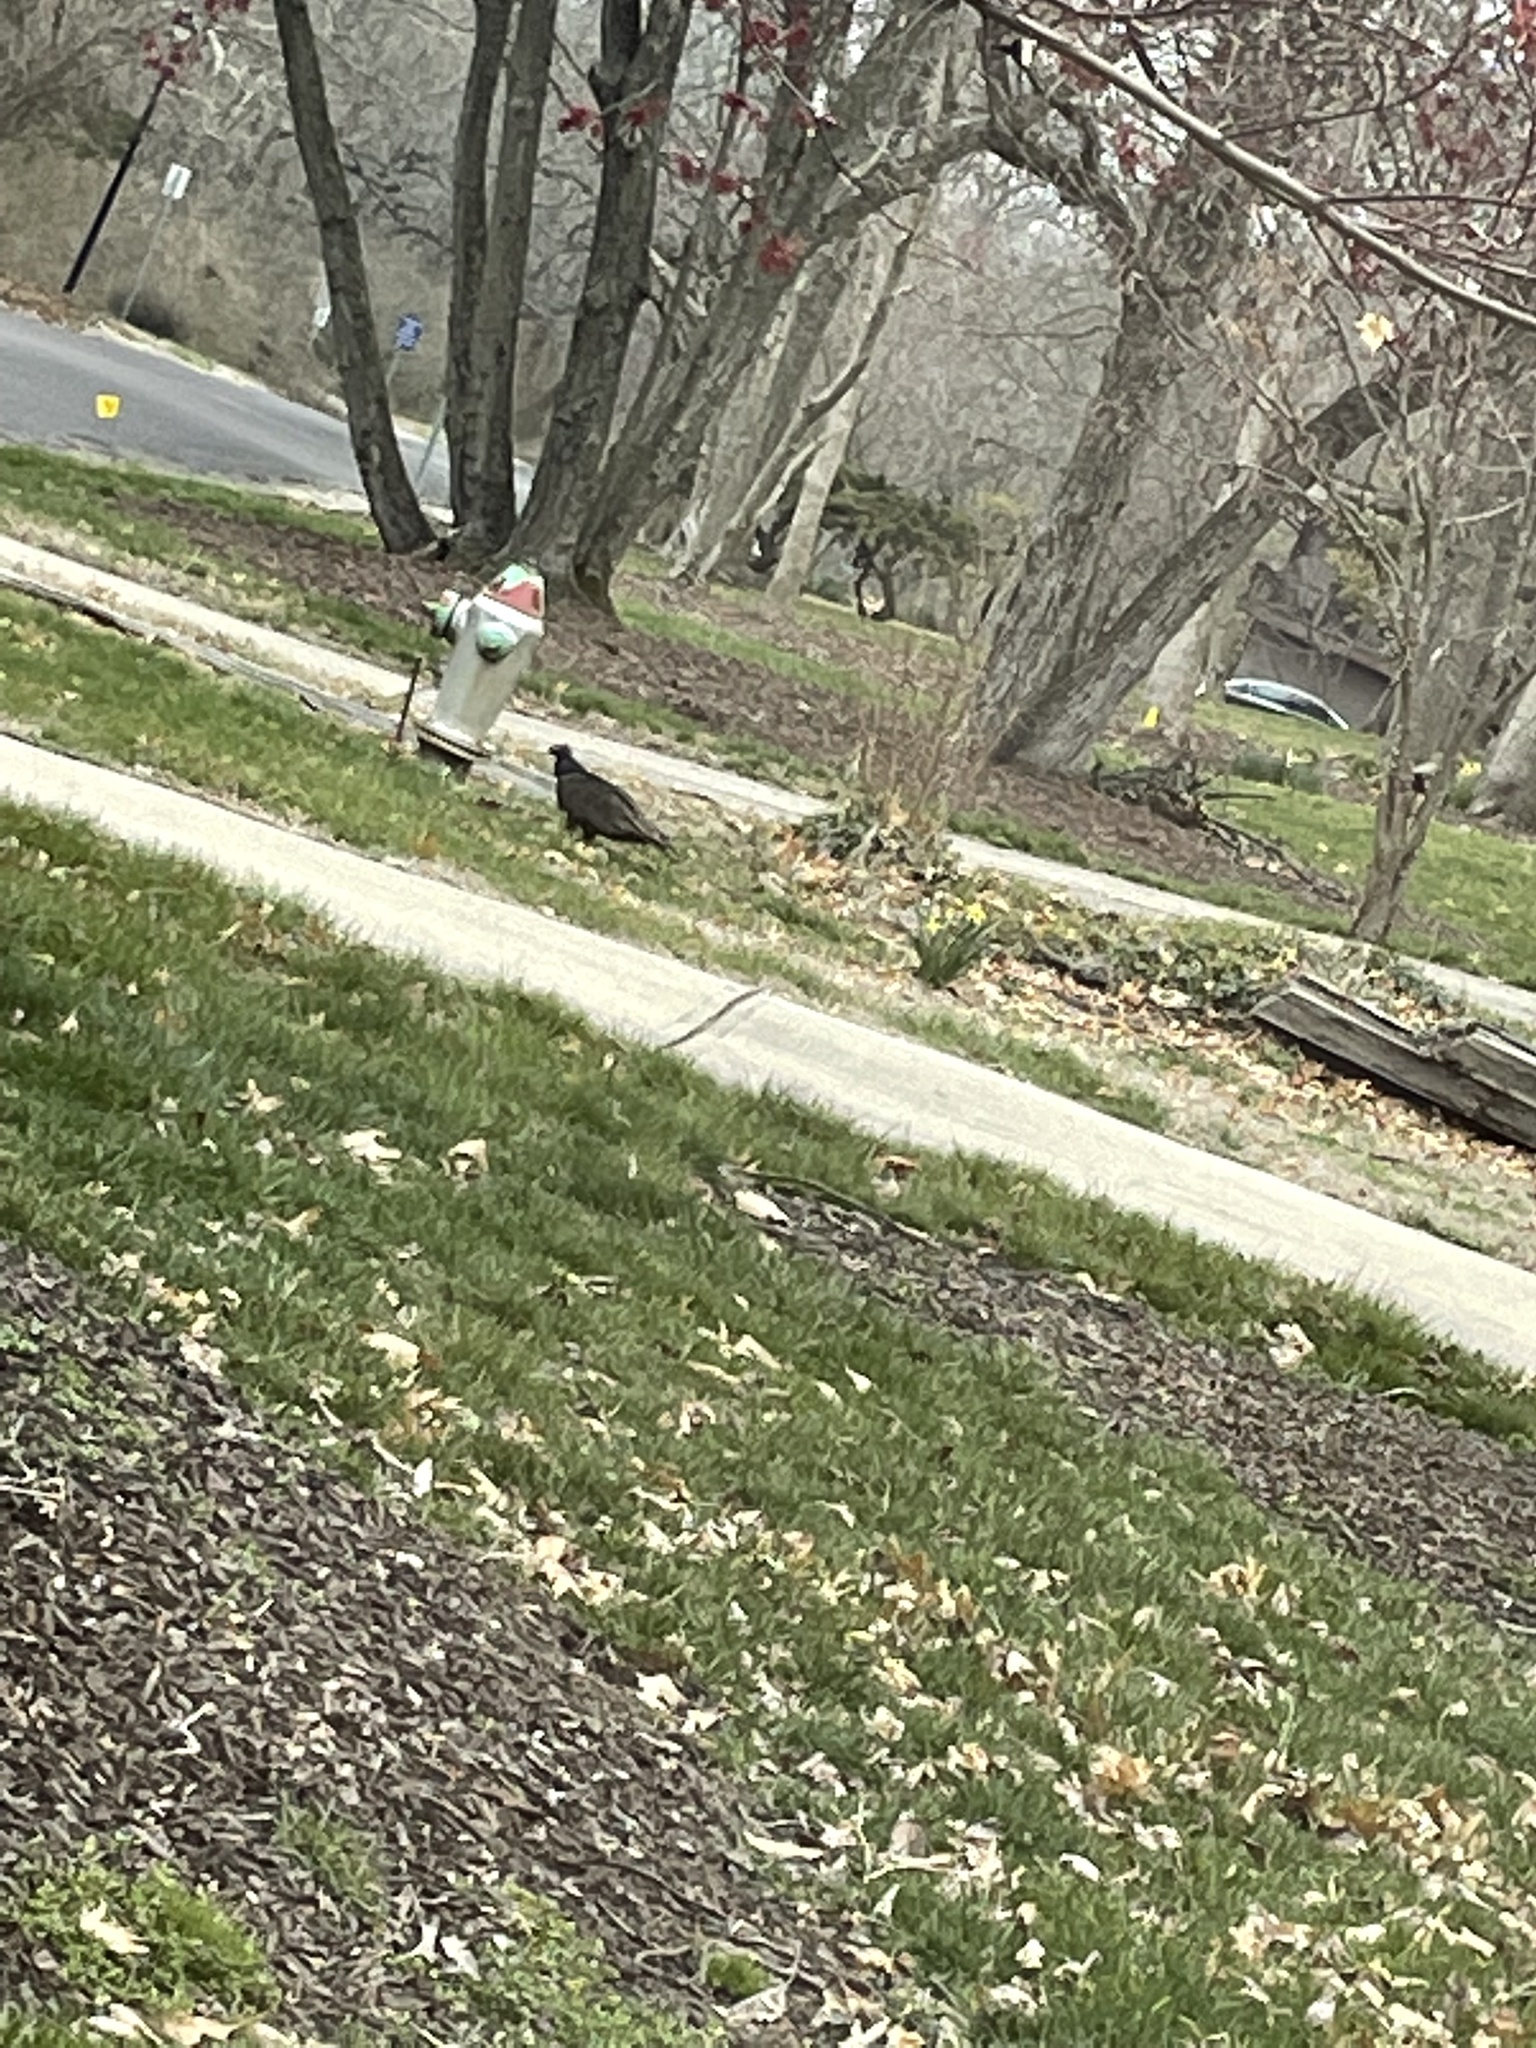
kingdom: Animalia
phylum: Chordata
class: Aves
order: Accipitriformes
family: Cathartidae
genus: Cathartes
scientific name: Cathartes aura
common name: Turkey vulture
